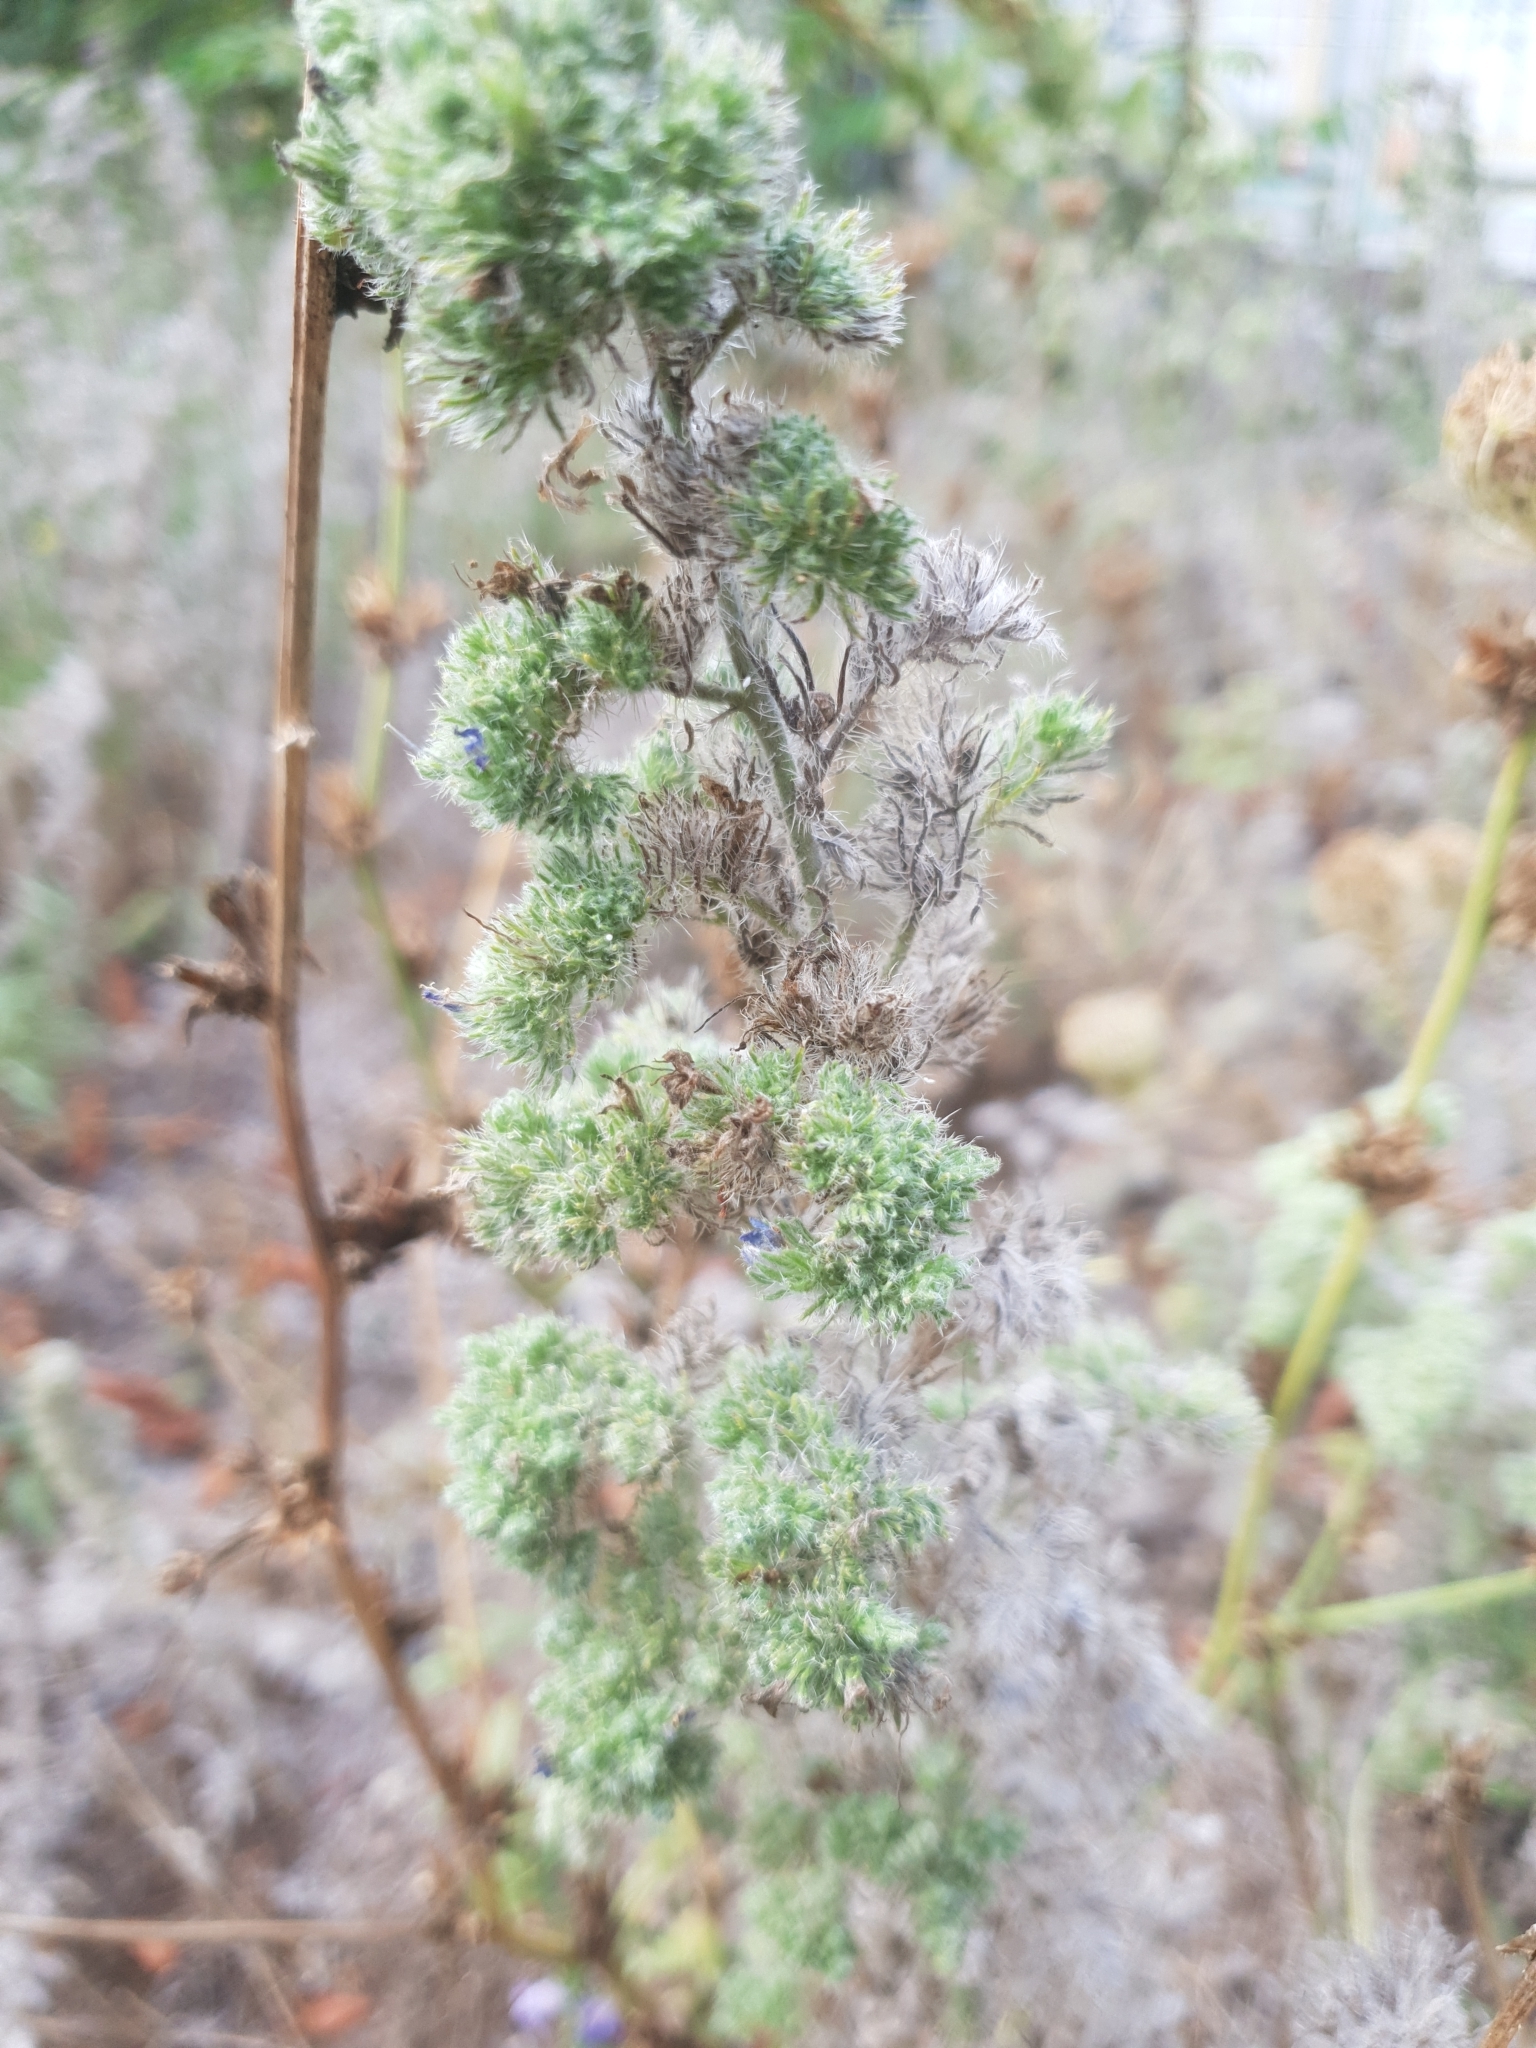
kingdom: Animalia
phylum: Arthropoda
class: Arachnida
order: Trombidiformes
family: Eriophyidae
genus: Aceria
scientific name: Aceria echii
